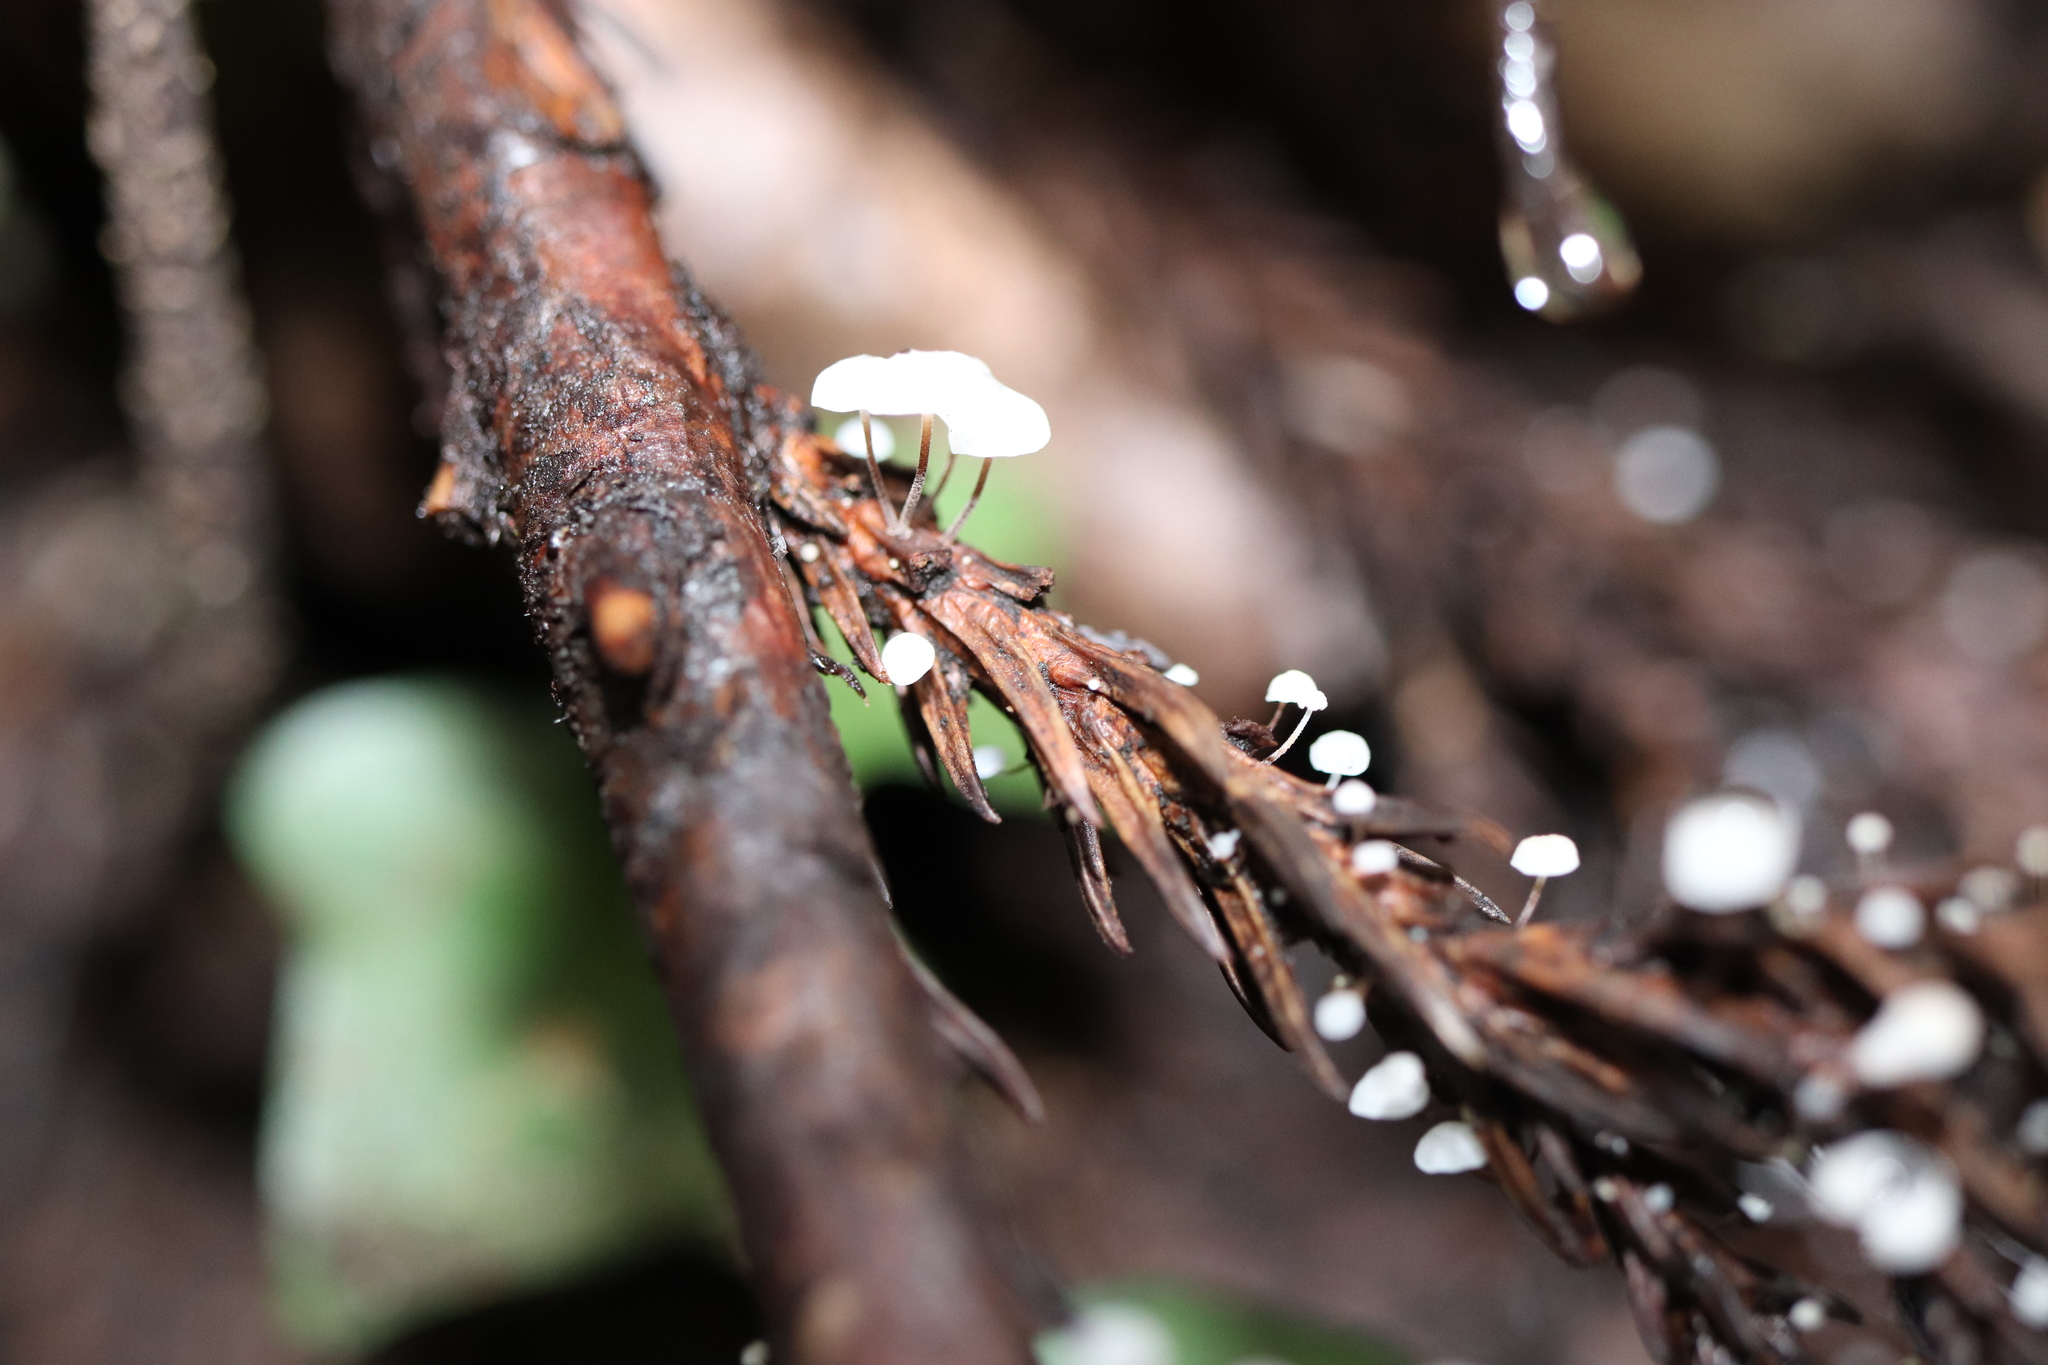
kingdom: Fungi
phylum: Basidiomycota
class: Agaricomycetes
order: Agaricales
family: Marasmiaceae
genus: Marasmius
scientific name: Marasmius capitatus
